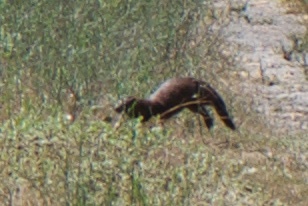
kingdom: Animalia
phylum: Chordata
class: Mammalia
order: Carnivora
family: Mustelidae
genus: Mustela
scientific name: Mustela
